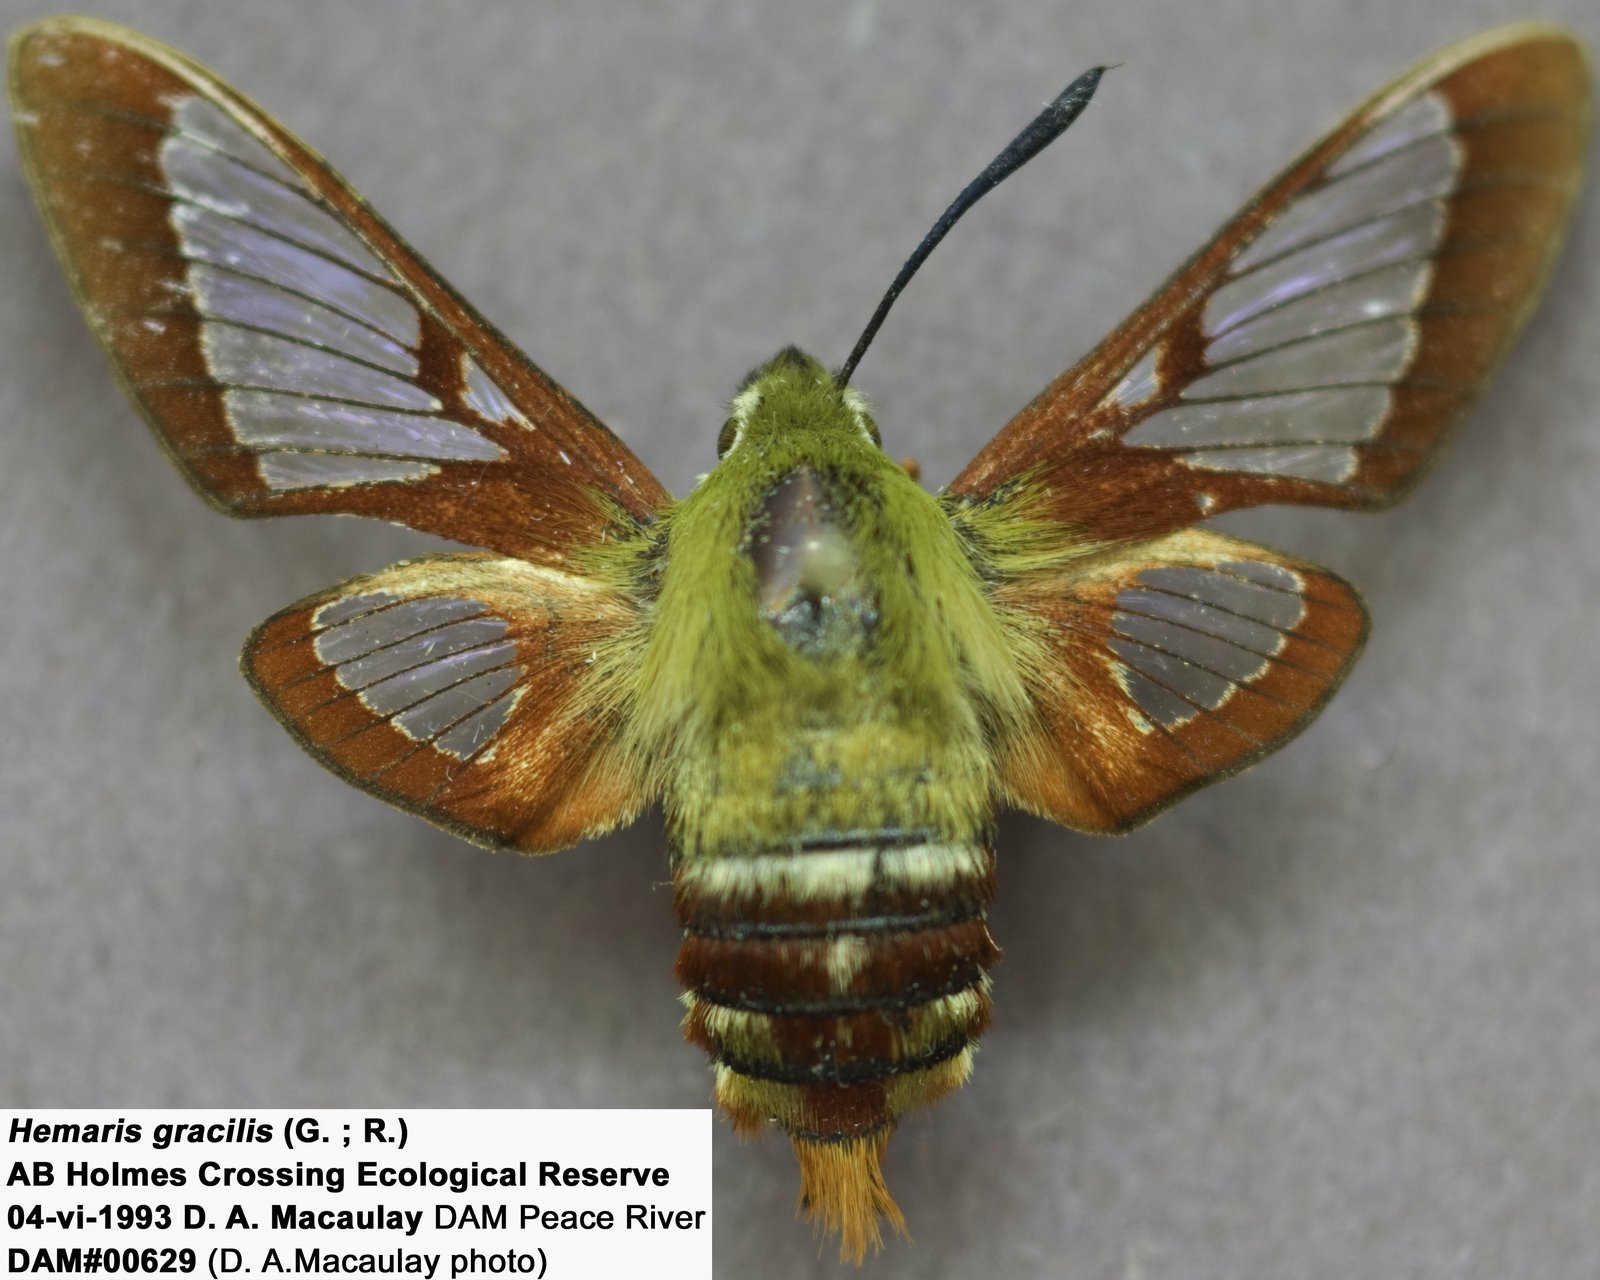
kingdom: Animalia
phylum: Arthropoda
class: Insecta
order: Lepidoptera
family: Sphingidae
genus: Hemaris
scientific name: Hemaris gracilis
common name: Graceful clearwing
